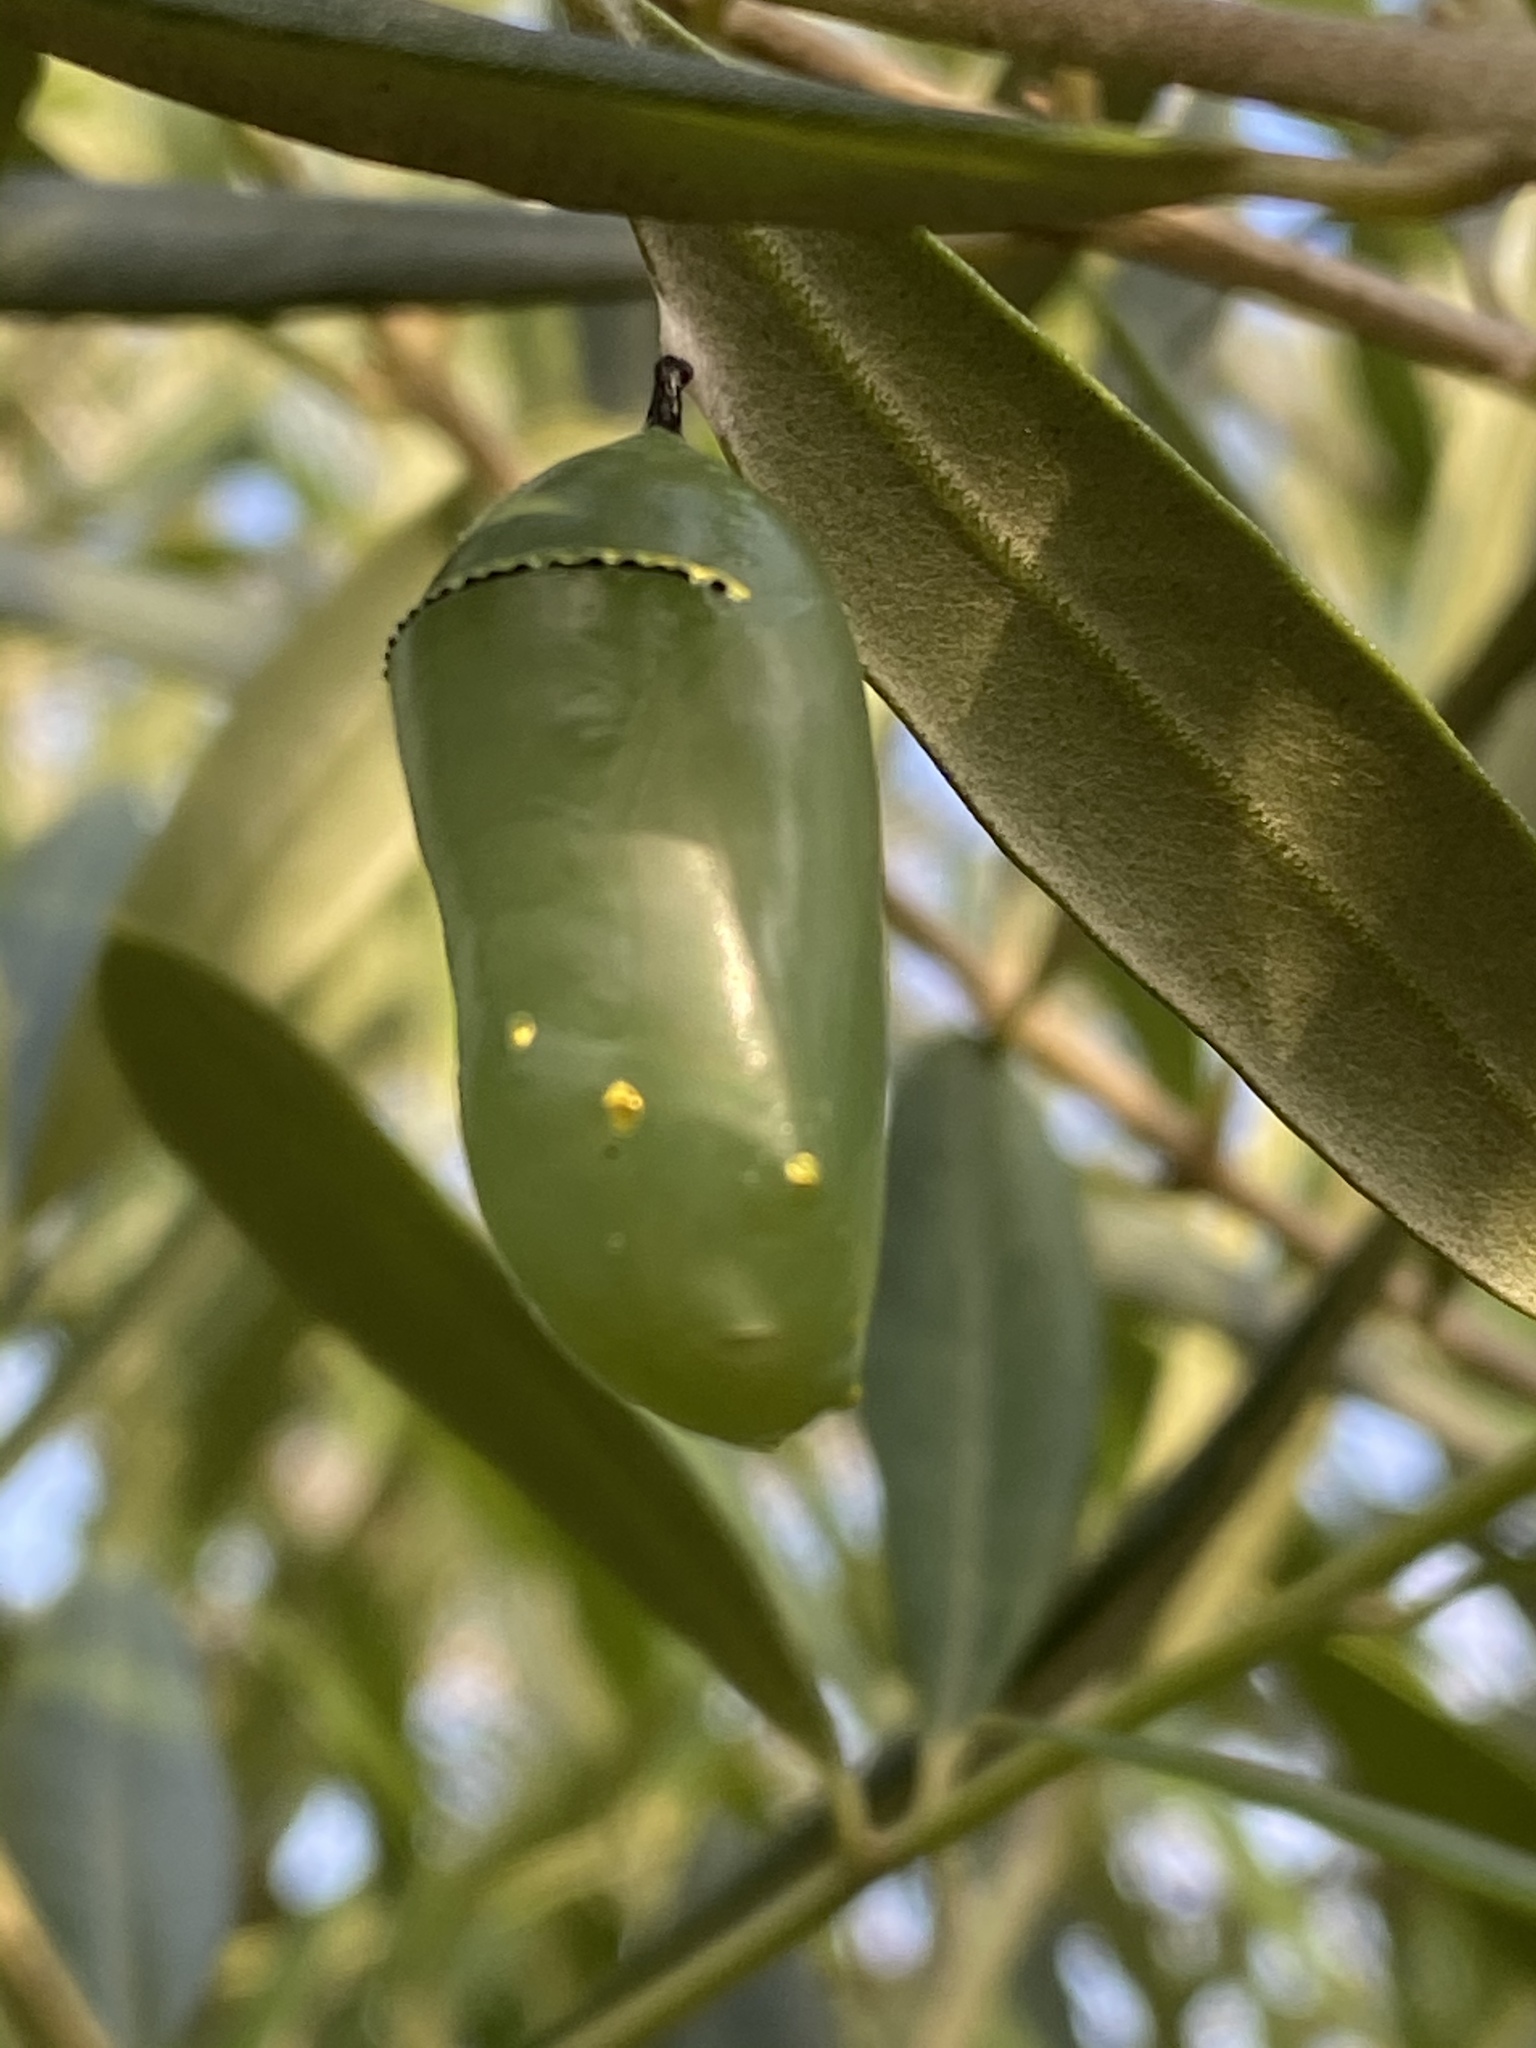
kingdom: Animalia
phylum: Arthropoda
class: Insecta
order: Lepidoptera
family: Nymphalidae
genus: Danaus
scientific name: Danaus plexippus
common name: Monarch
